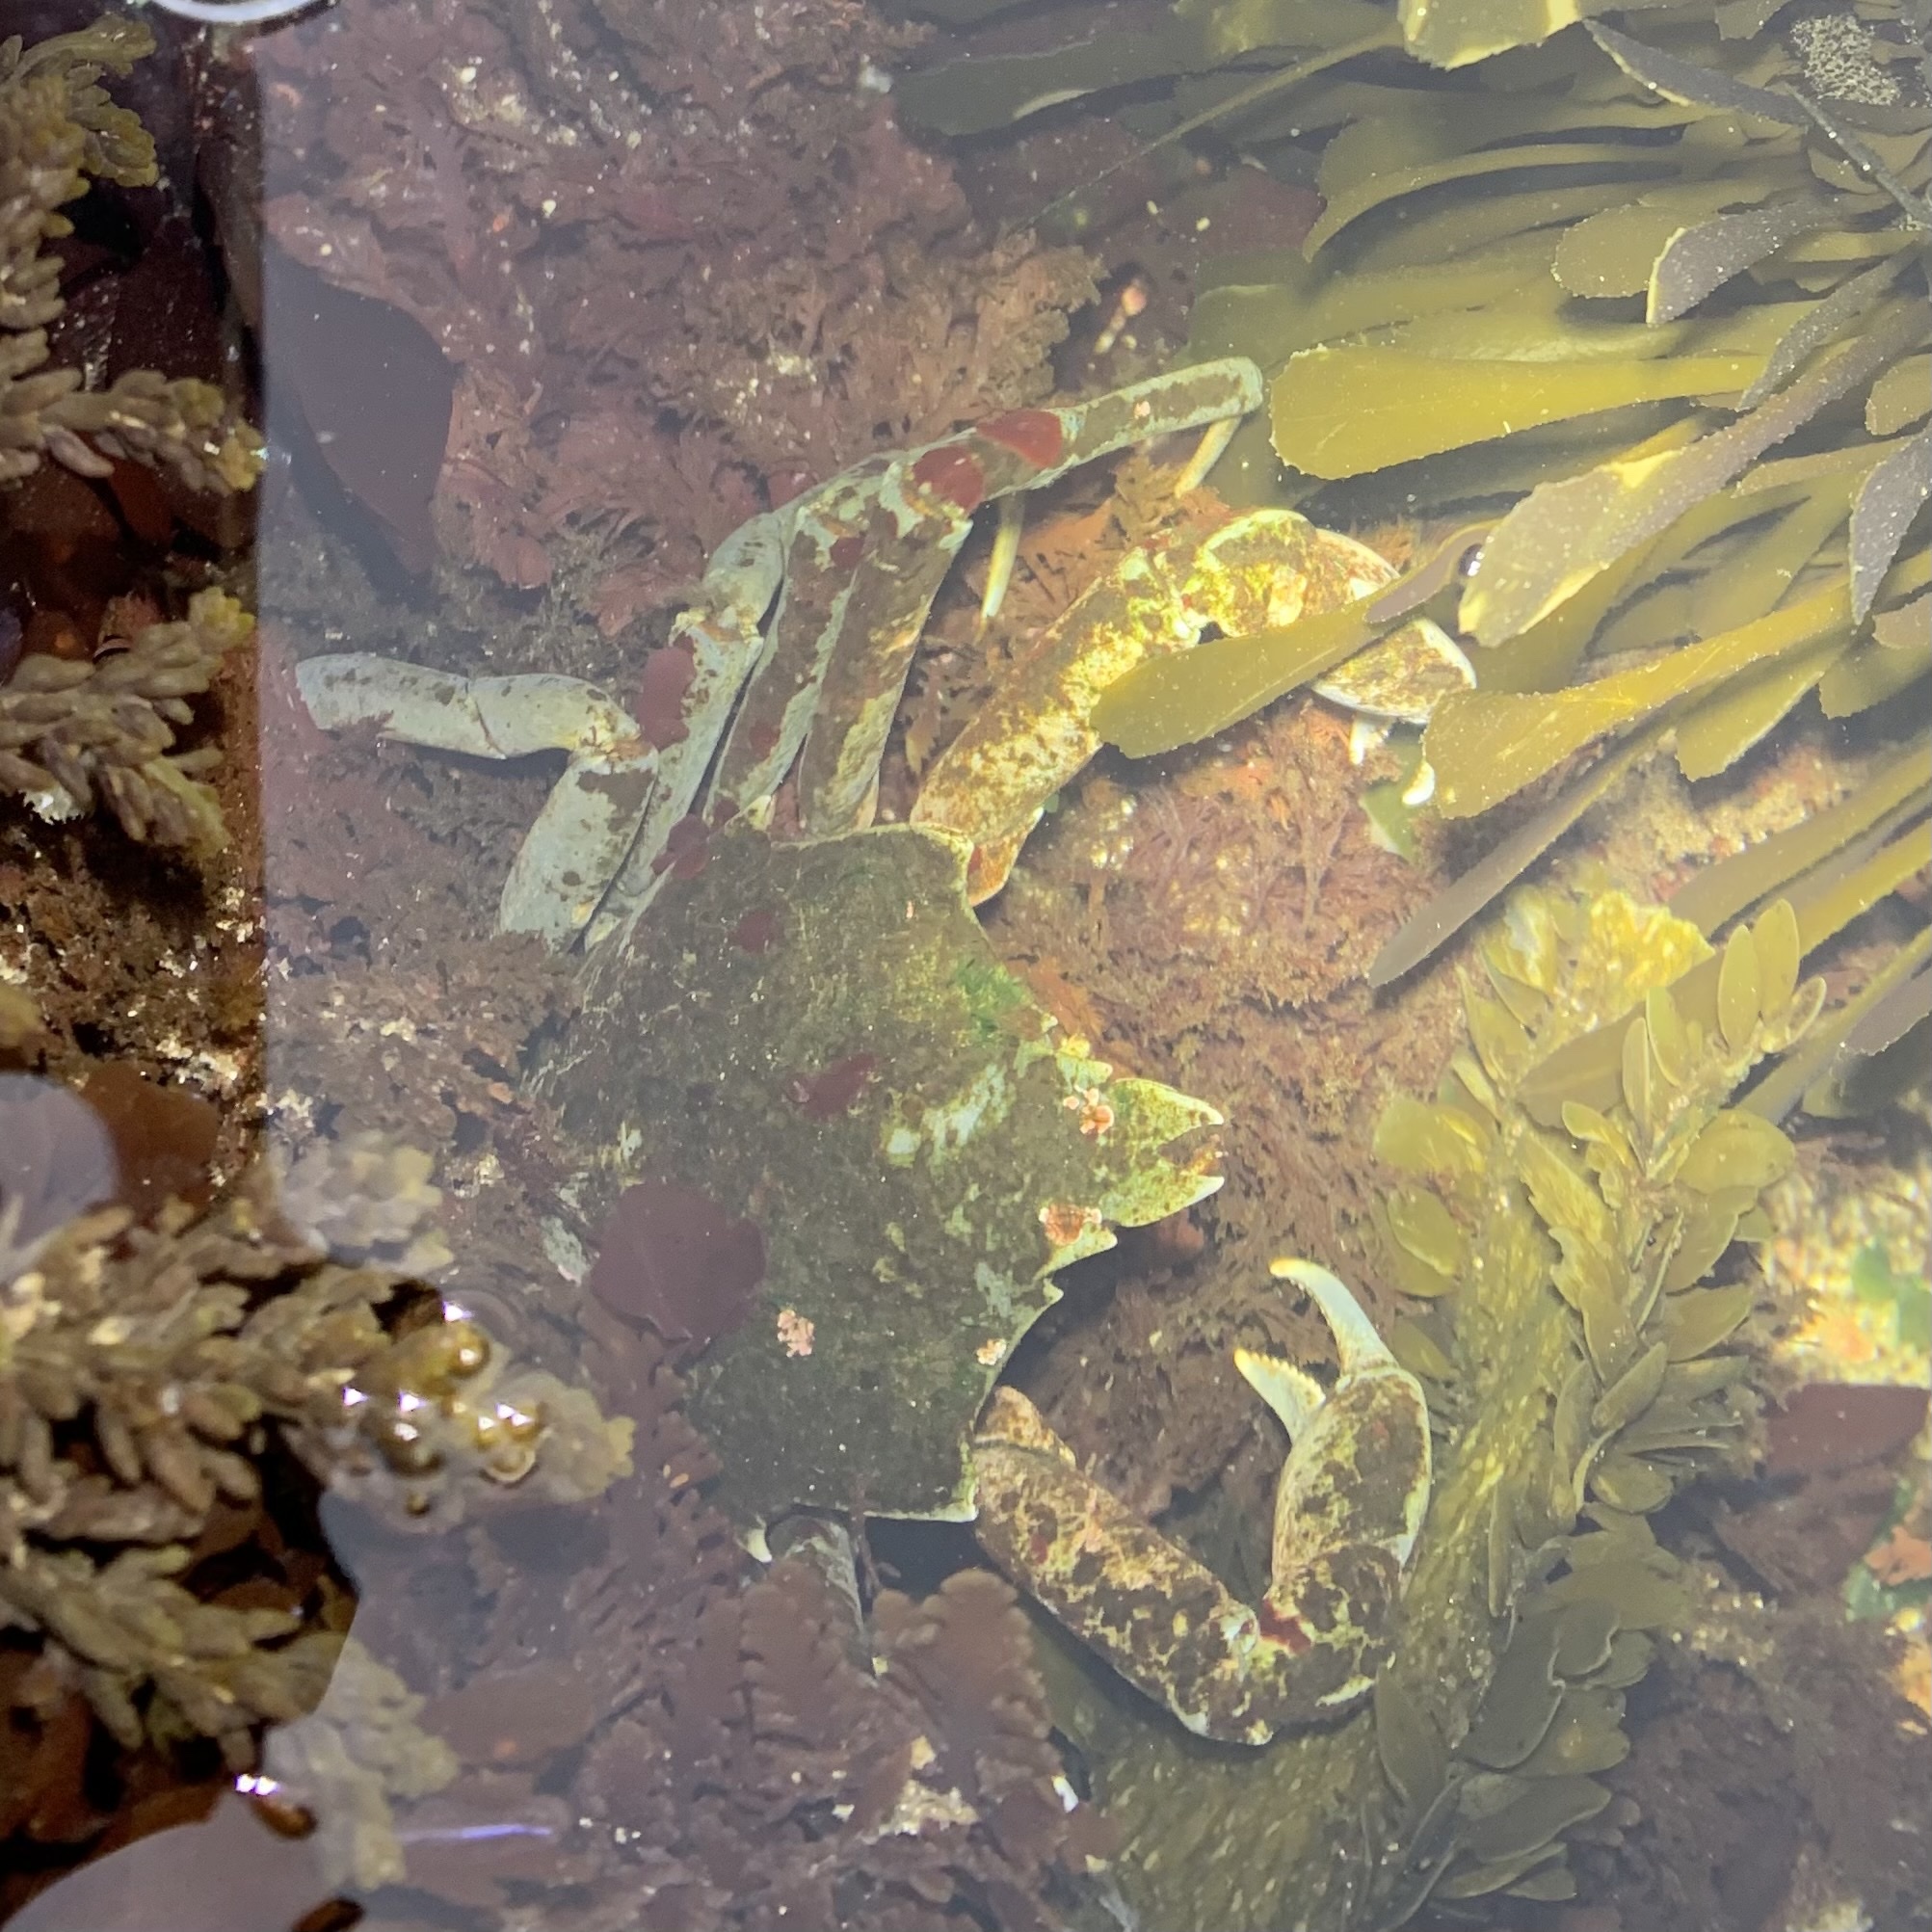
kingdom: Animalia
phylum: Arthropoda
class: Malacostraca
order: Decapoda
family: Epialtidae
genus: Pugettia
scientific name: Pugettia producta
